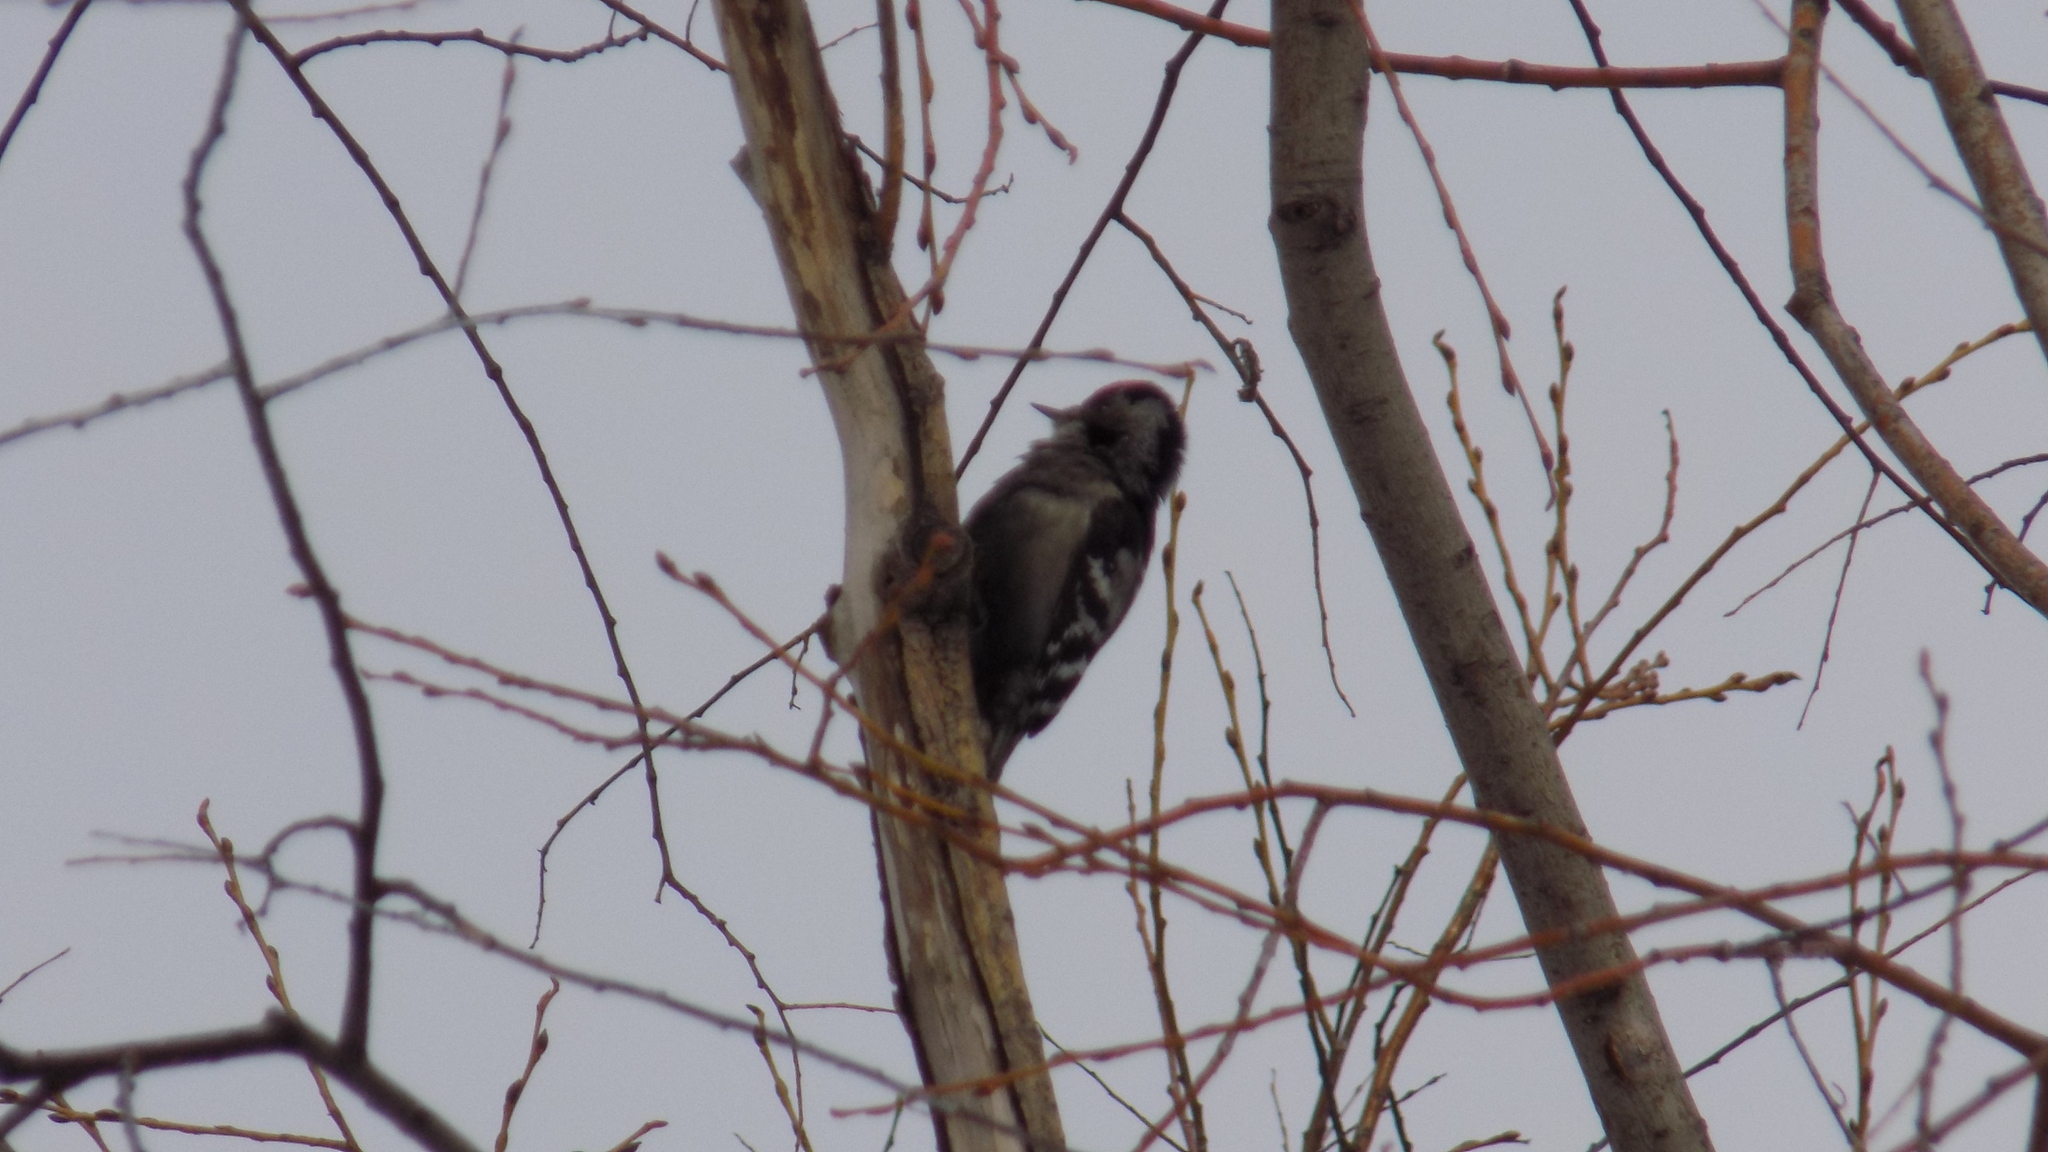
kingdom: Animalia
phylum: Chordata
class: Aves
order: Piciformes
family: Picidae
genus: Dryobates
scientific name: Dryobates minor
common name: Lesser spotted woodpecker
